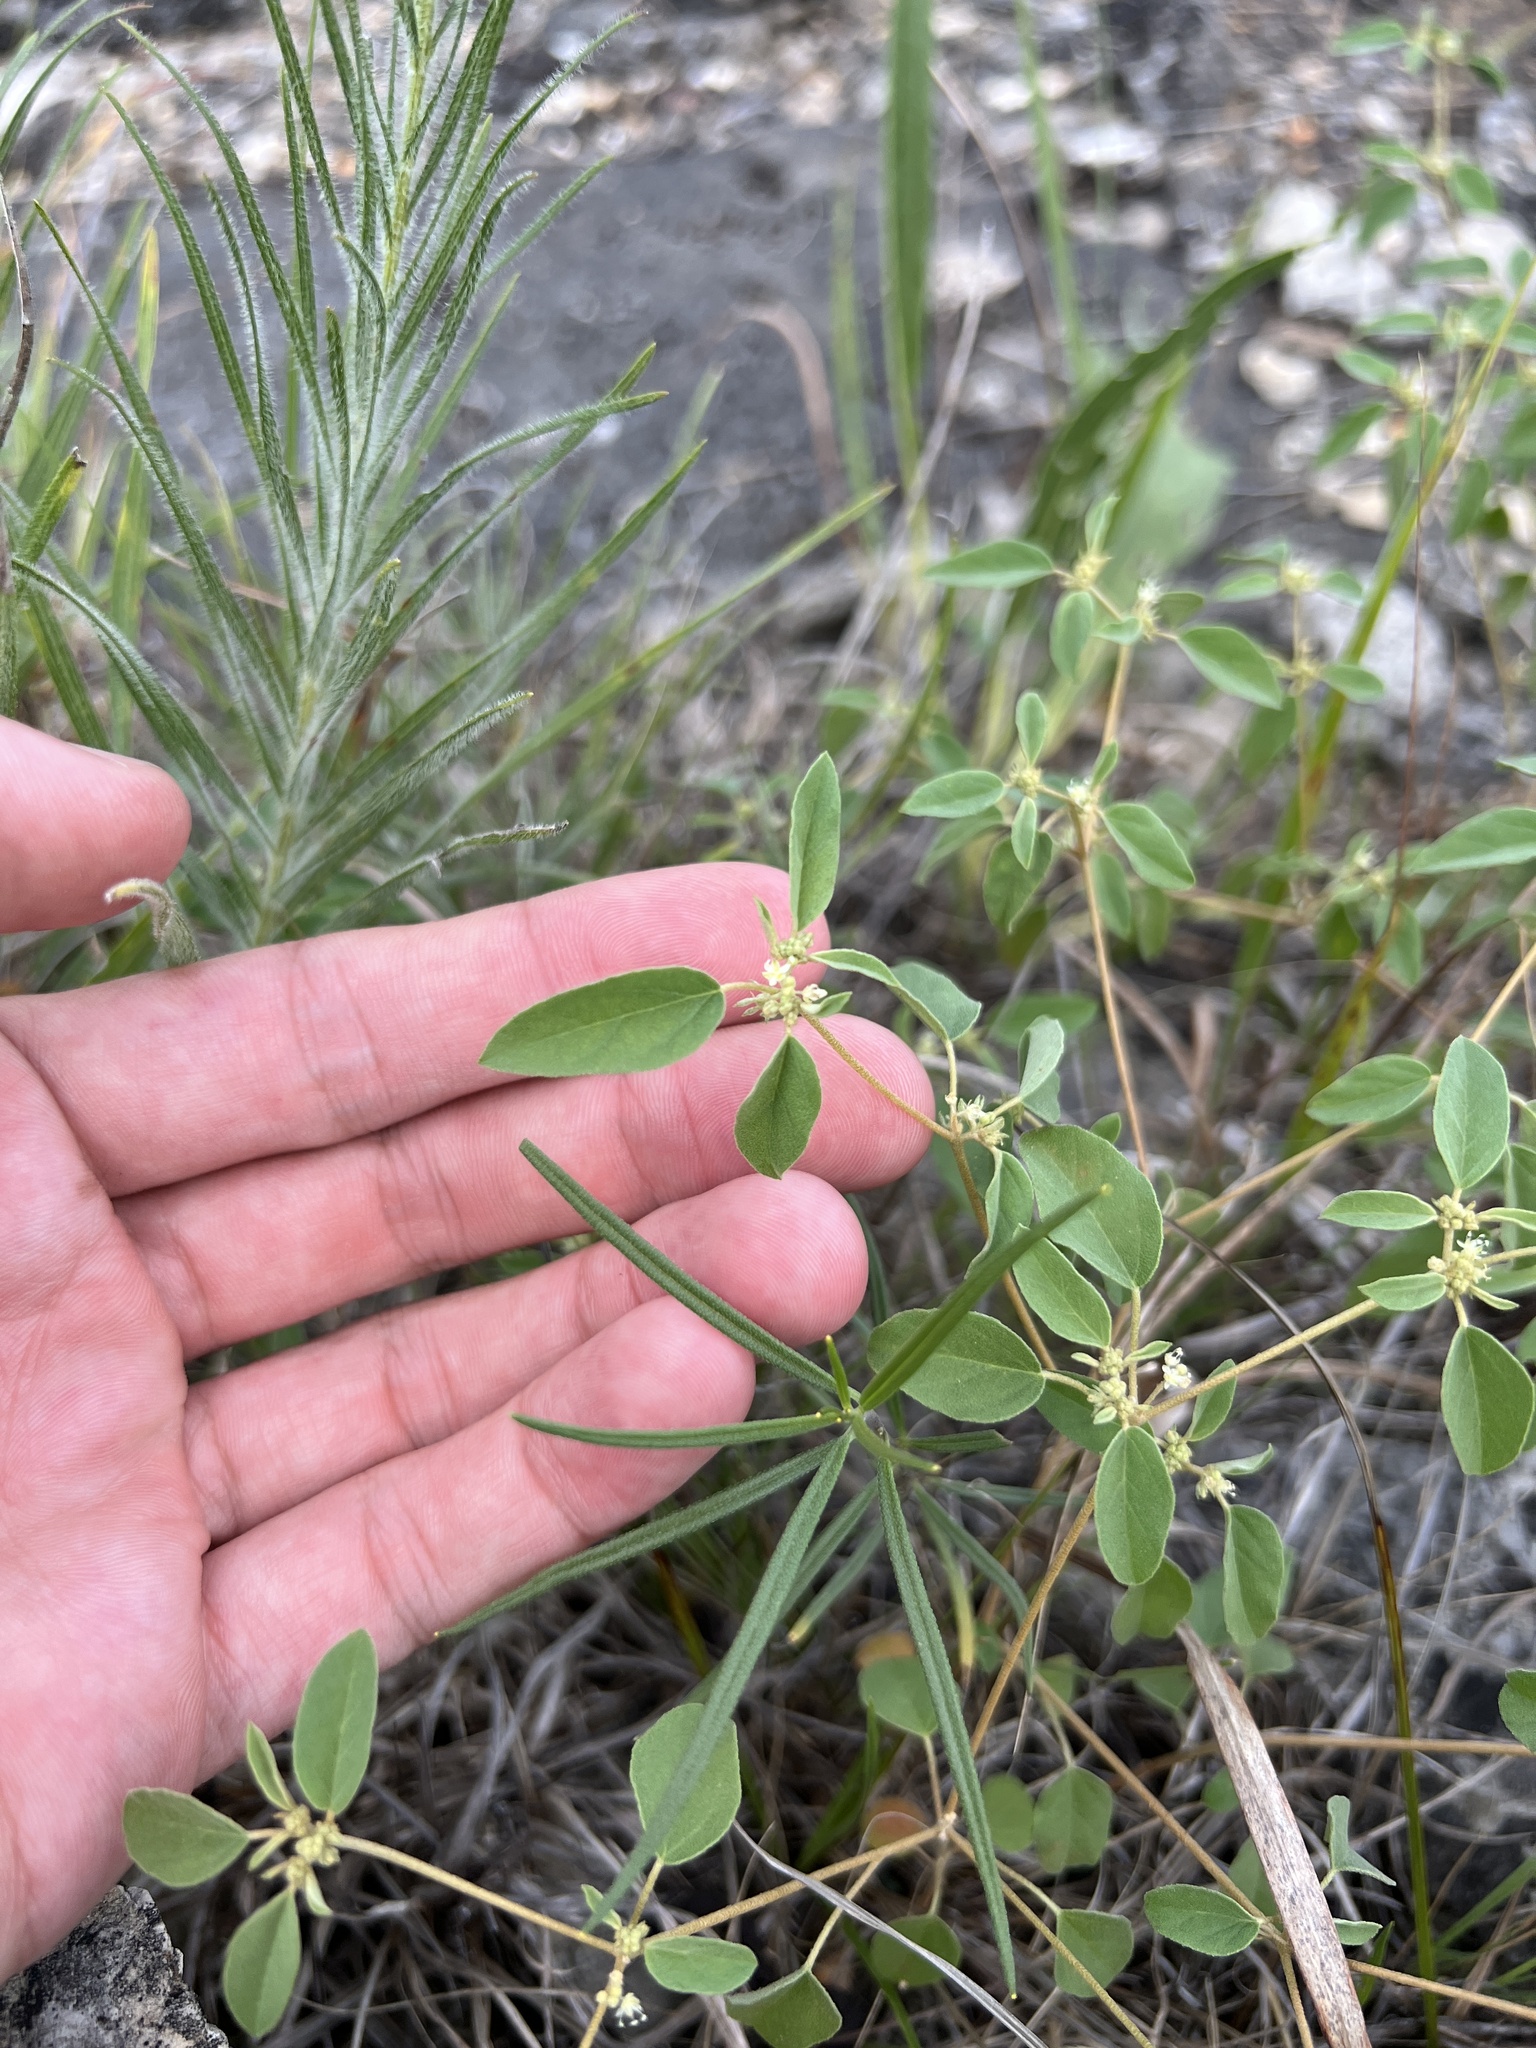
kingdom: Plantae
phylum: Tracheophyta
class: Magnoliopsida
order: Malpighiales
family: Euphorbiaceae
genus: Croton
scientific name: Croton monanthogynus
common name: One-seed croton
